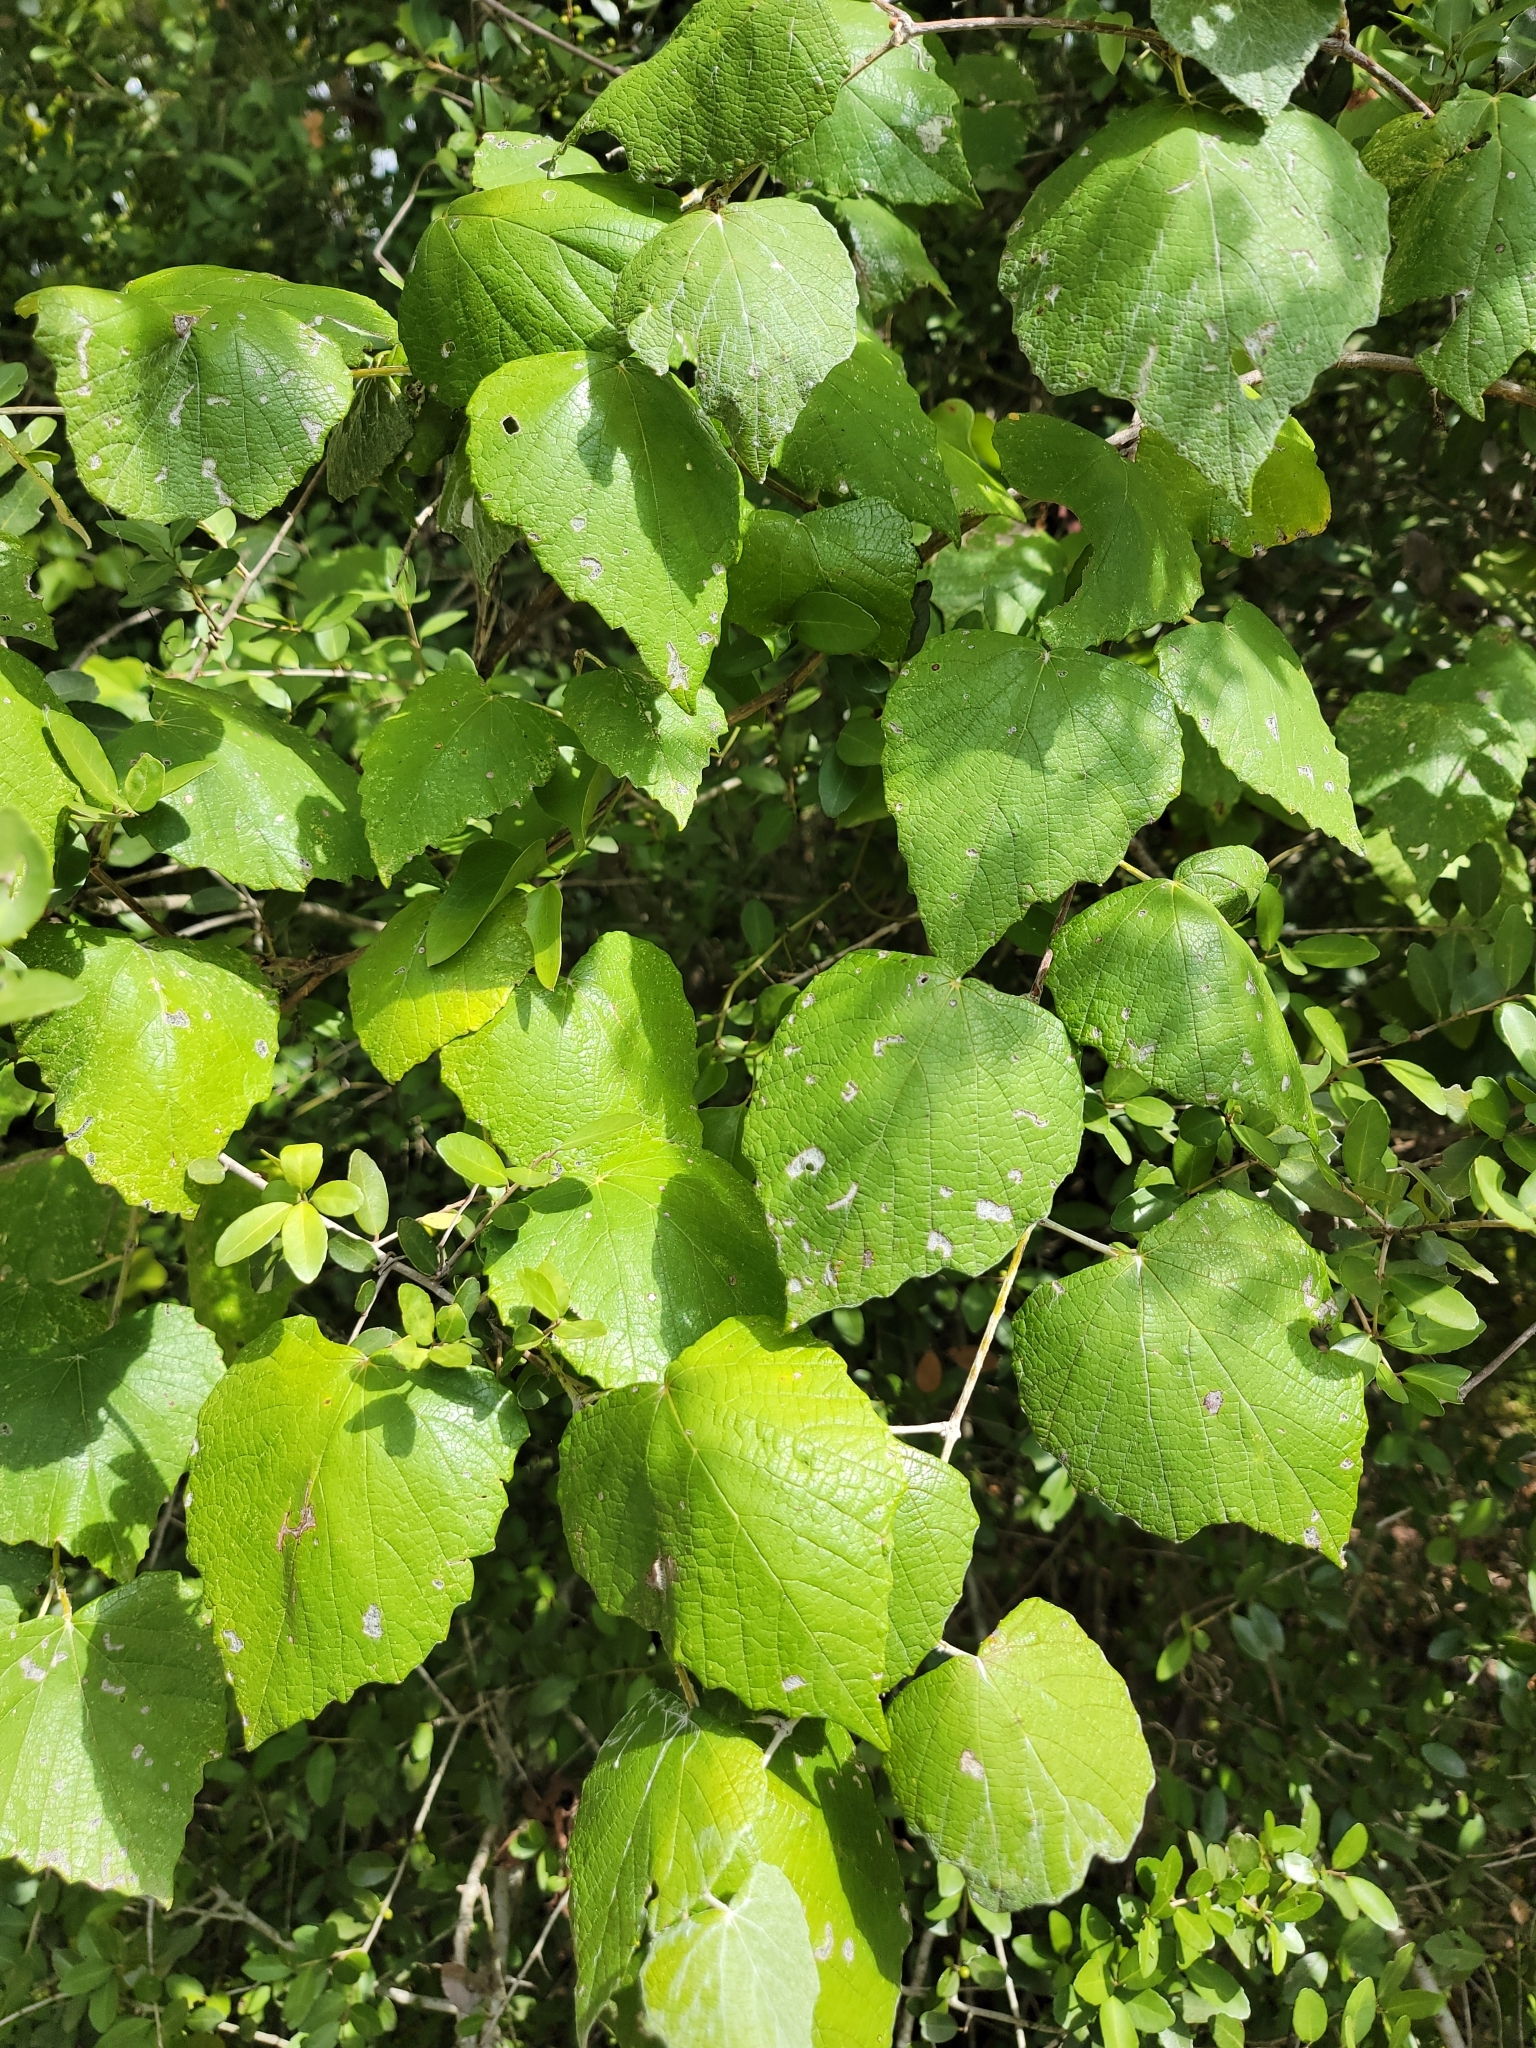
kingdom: Plantae
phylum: Tracheophyta
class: Magnoliopsida
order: Vitales
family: Vitaceae
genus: Vitis
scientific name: Vitis mustangensis
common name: Mustang grape
